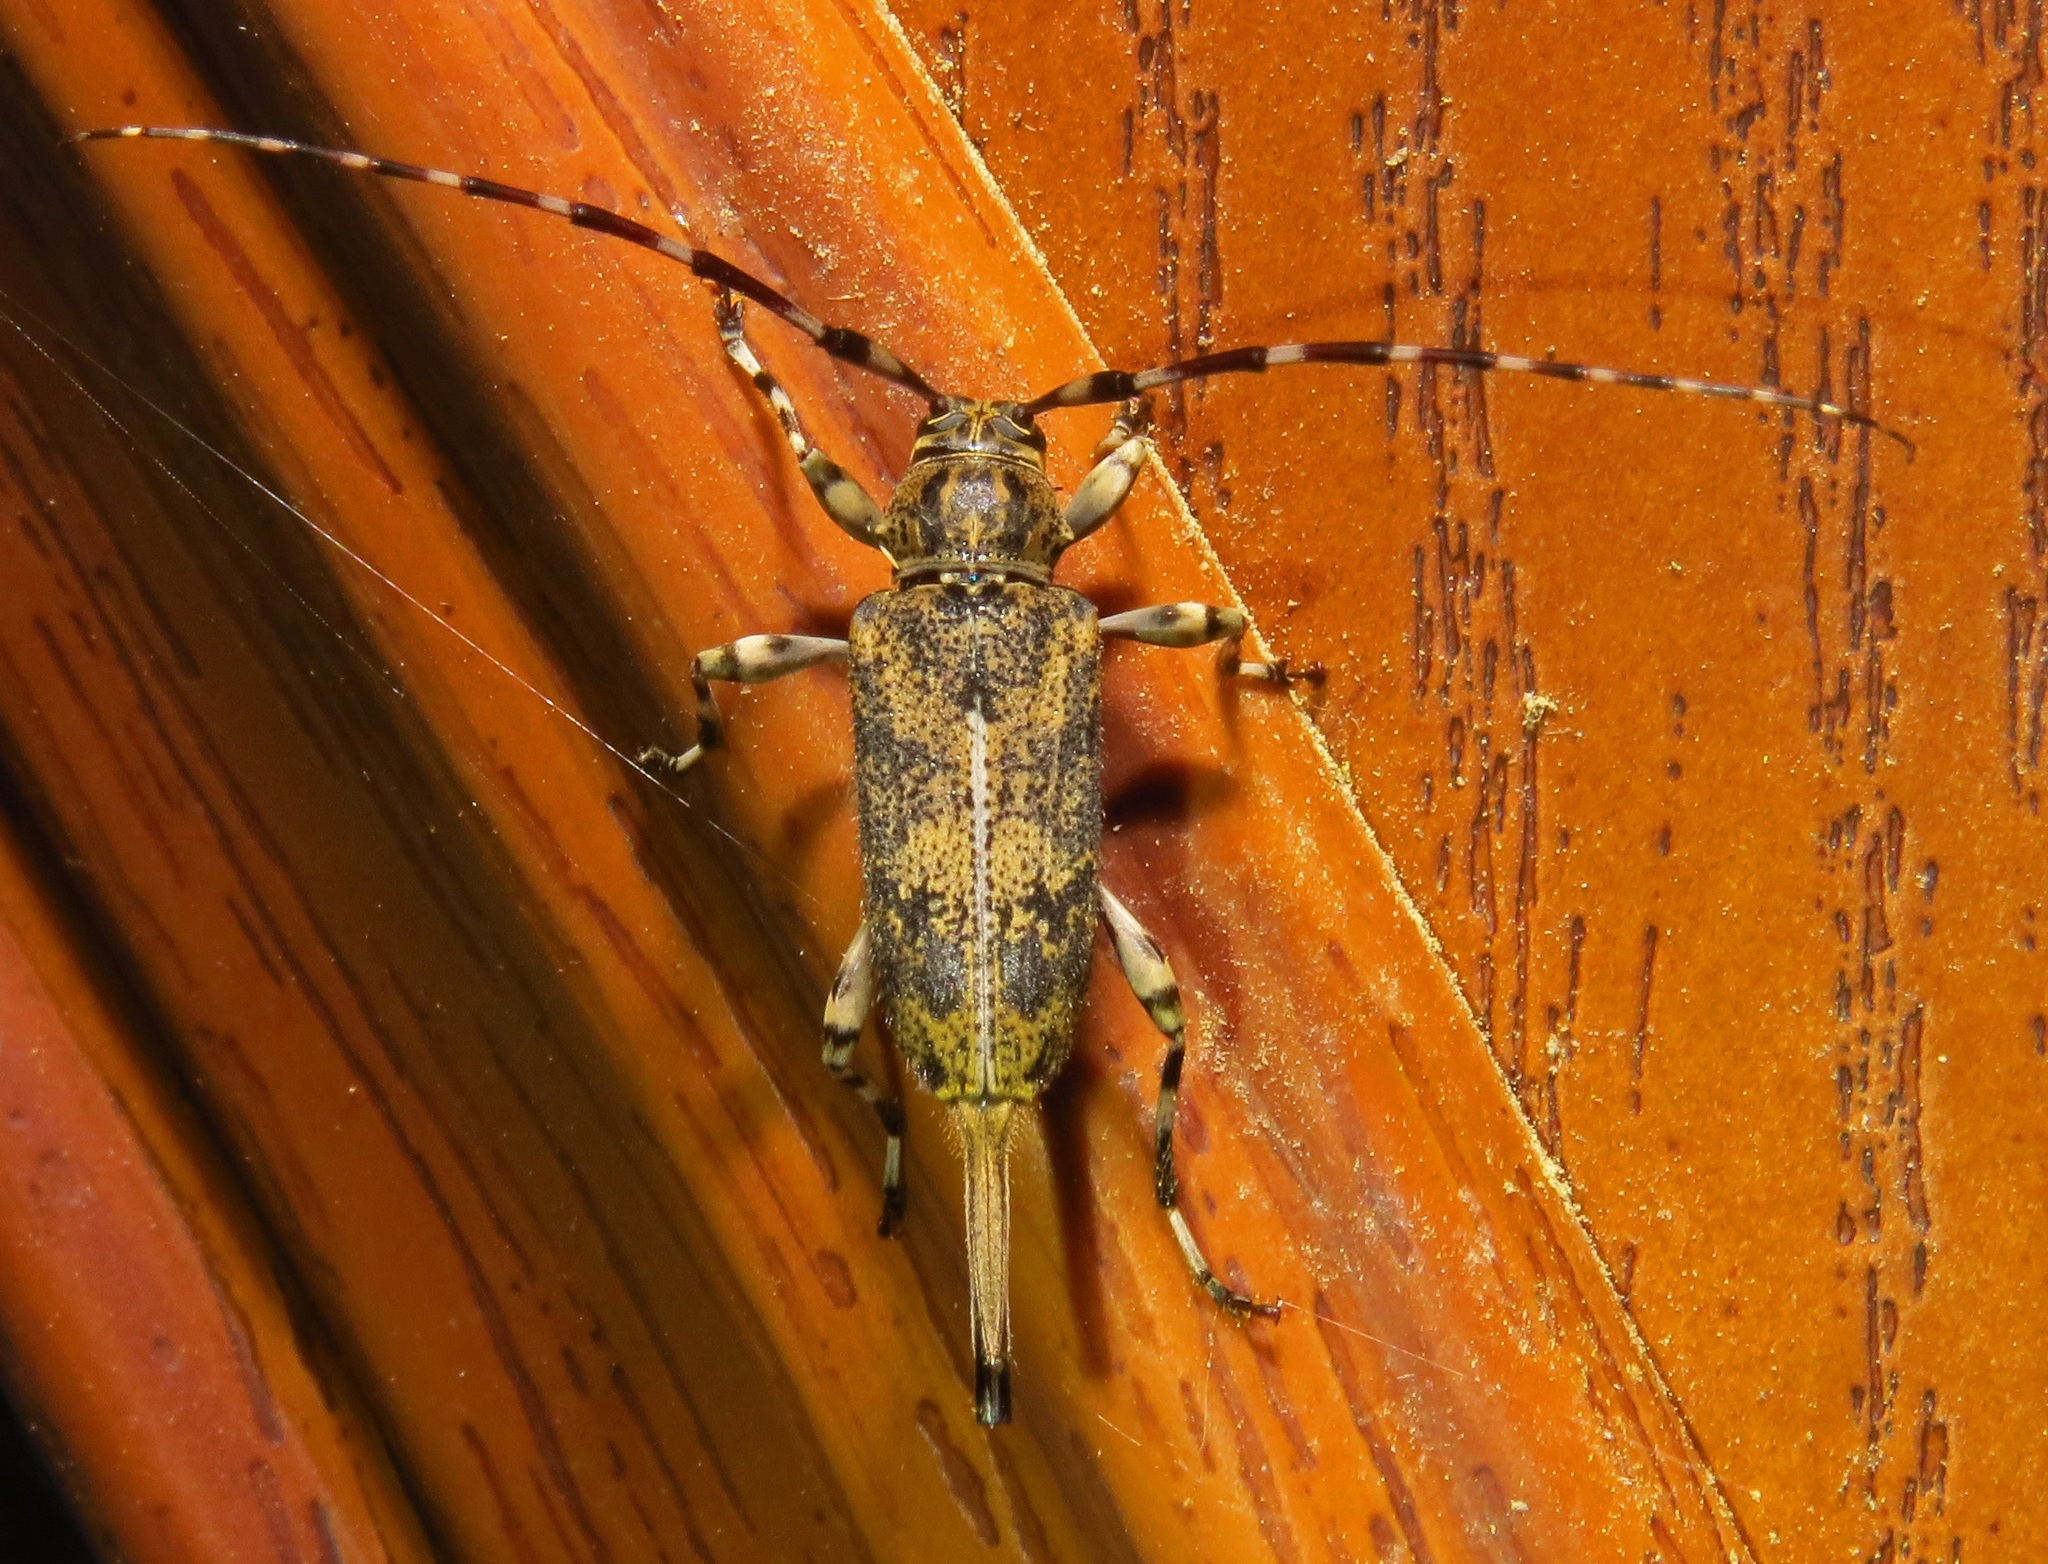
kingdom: Animalia
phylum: Arthropoda
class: Insecta
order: Coleoptera
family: Cerambycidae
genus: Graphisurus
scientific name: Graphisurus fasciatus
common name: Banded graphisurus
